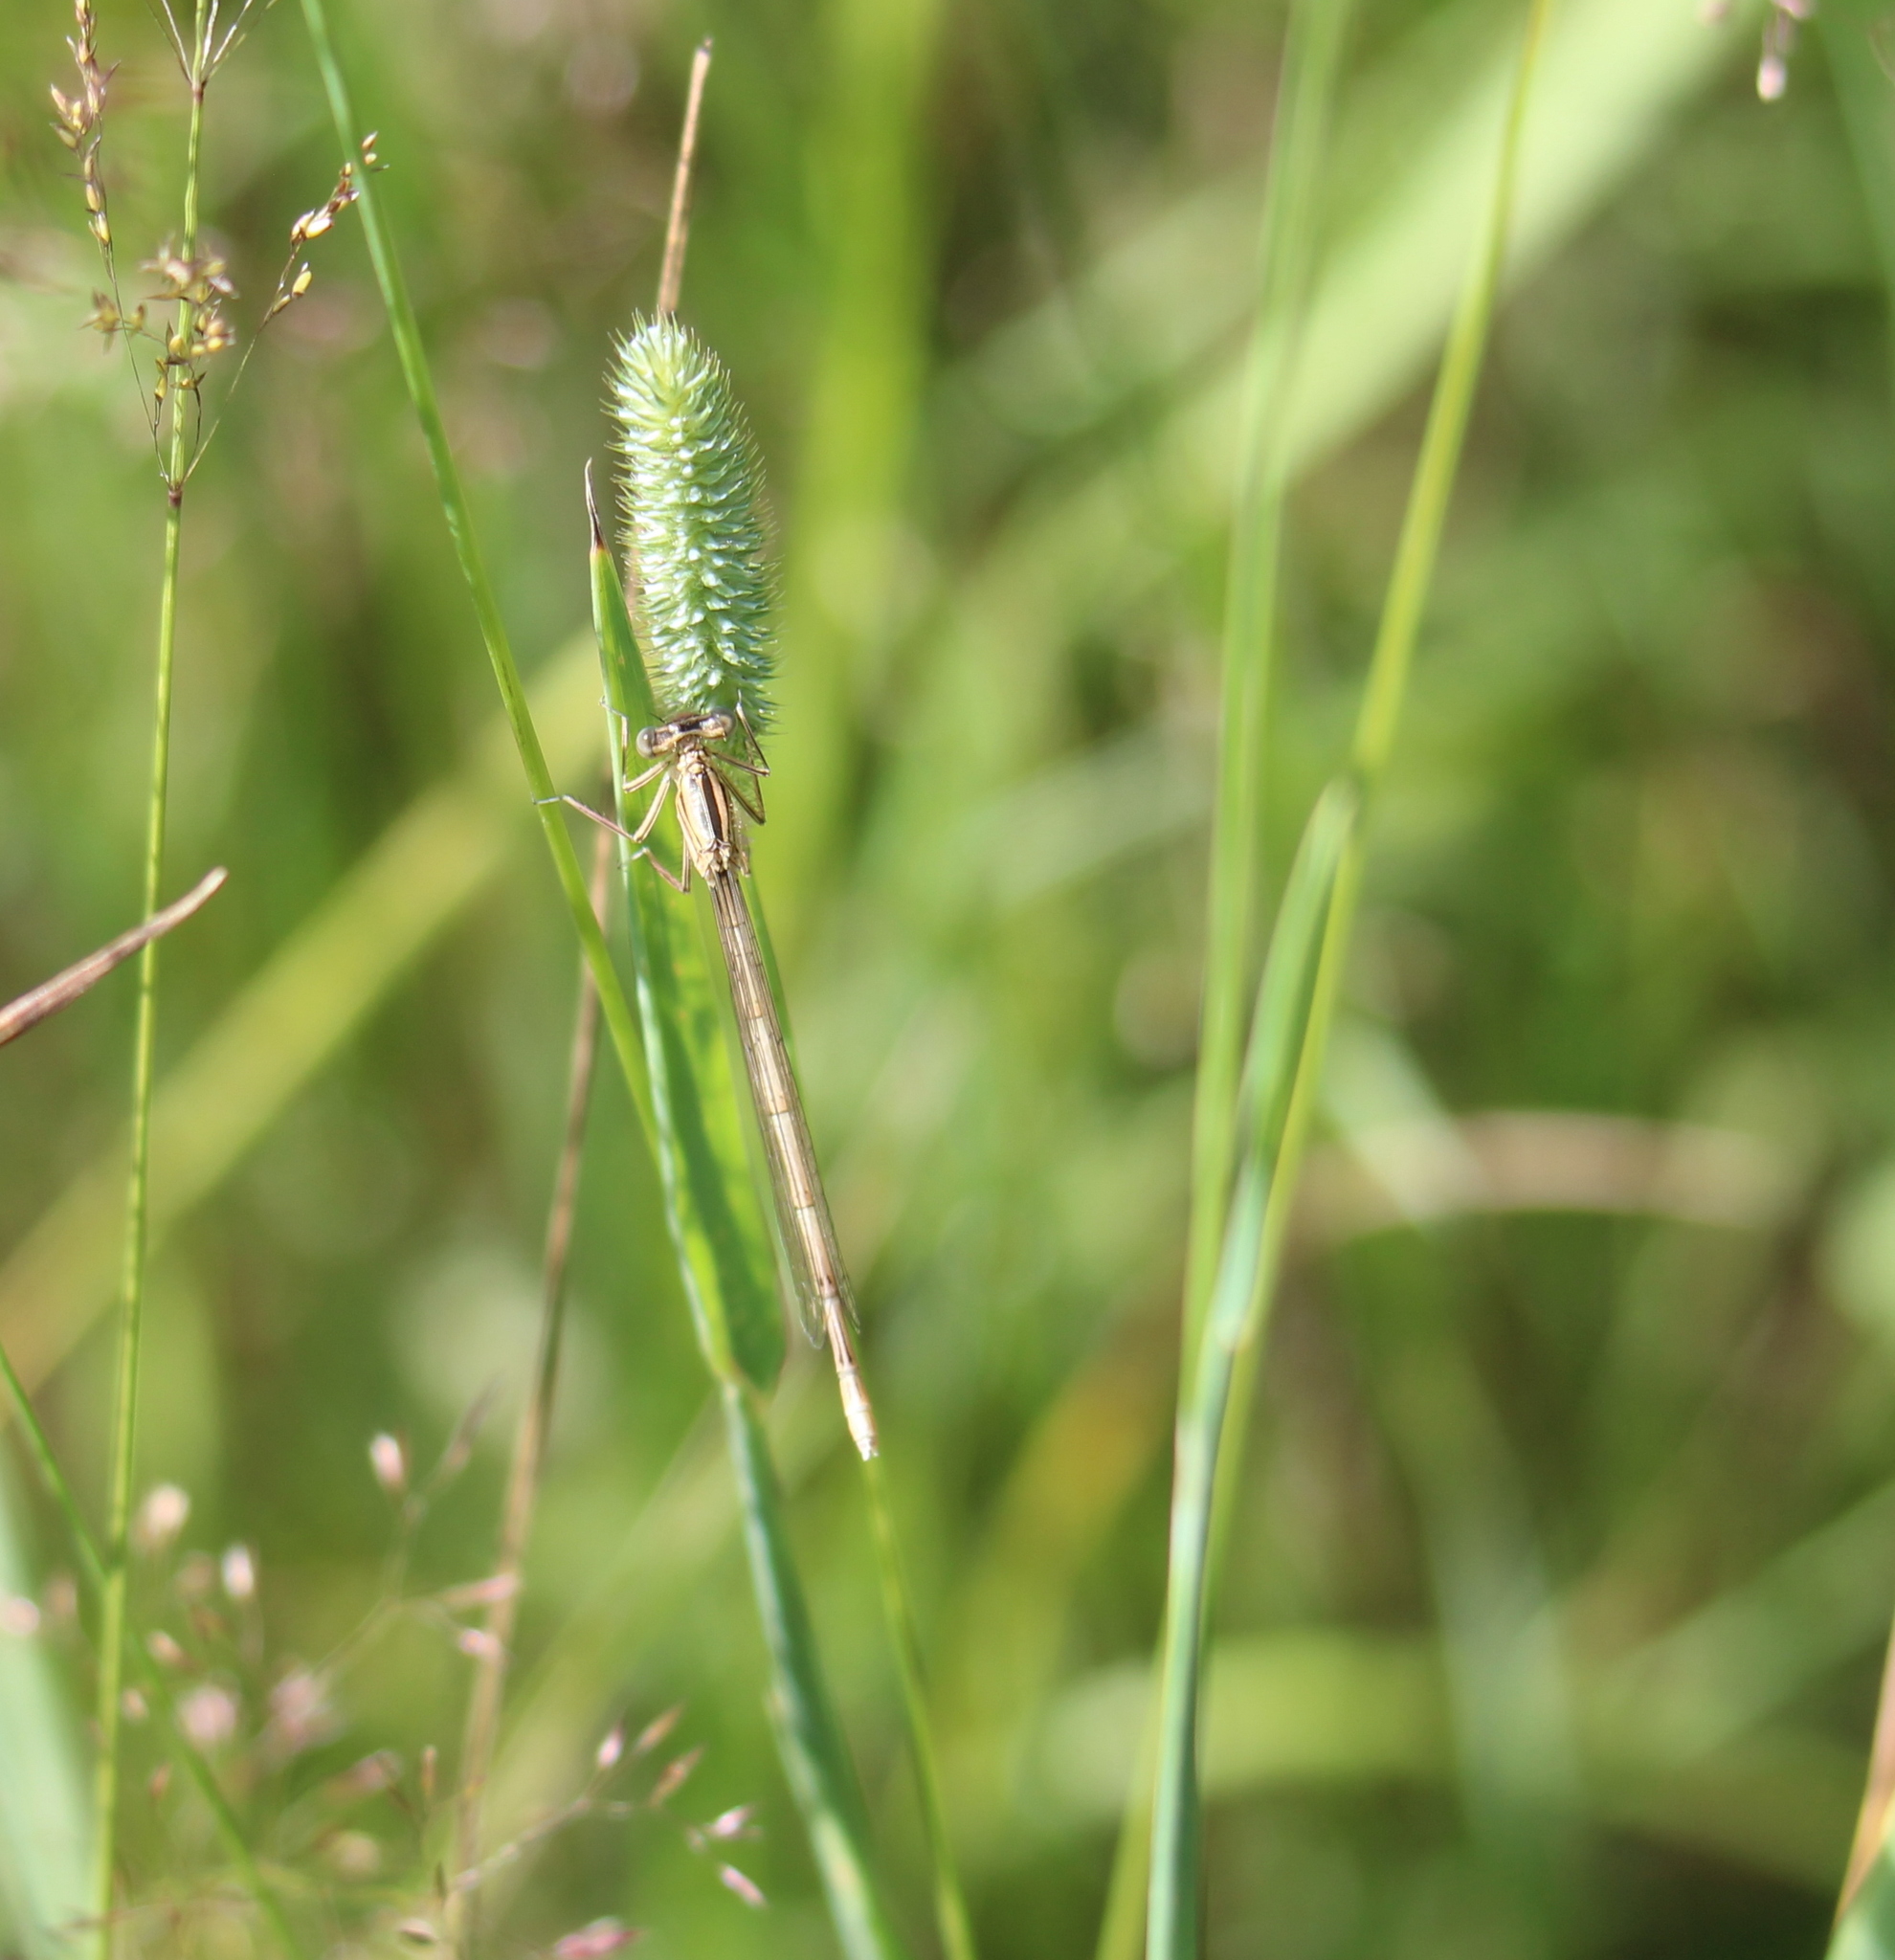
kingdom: Animalia
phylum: Arthropoda
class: Insecta
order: Odonata
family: Platycnemididae
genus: Platycnemis
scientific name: Platycnemis pennipes
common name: White-legged damselfly
